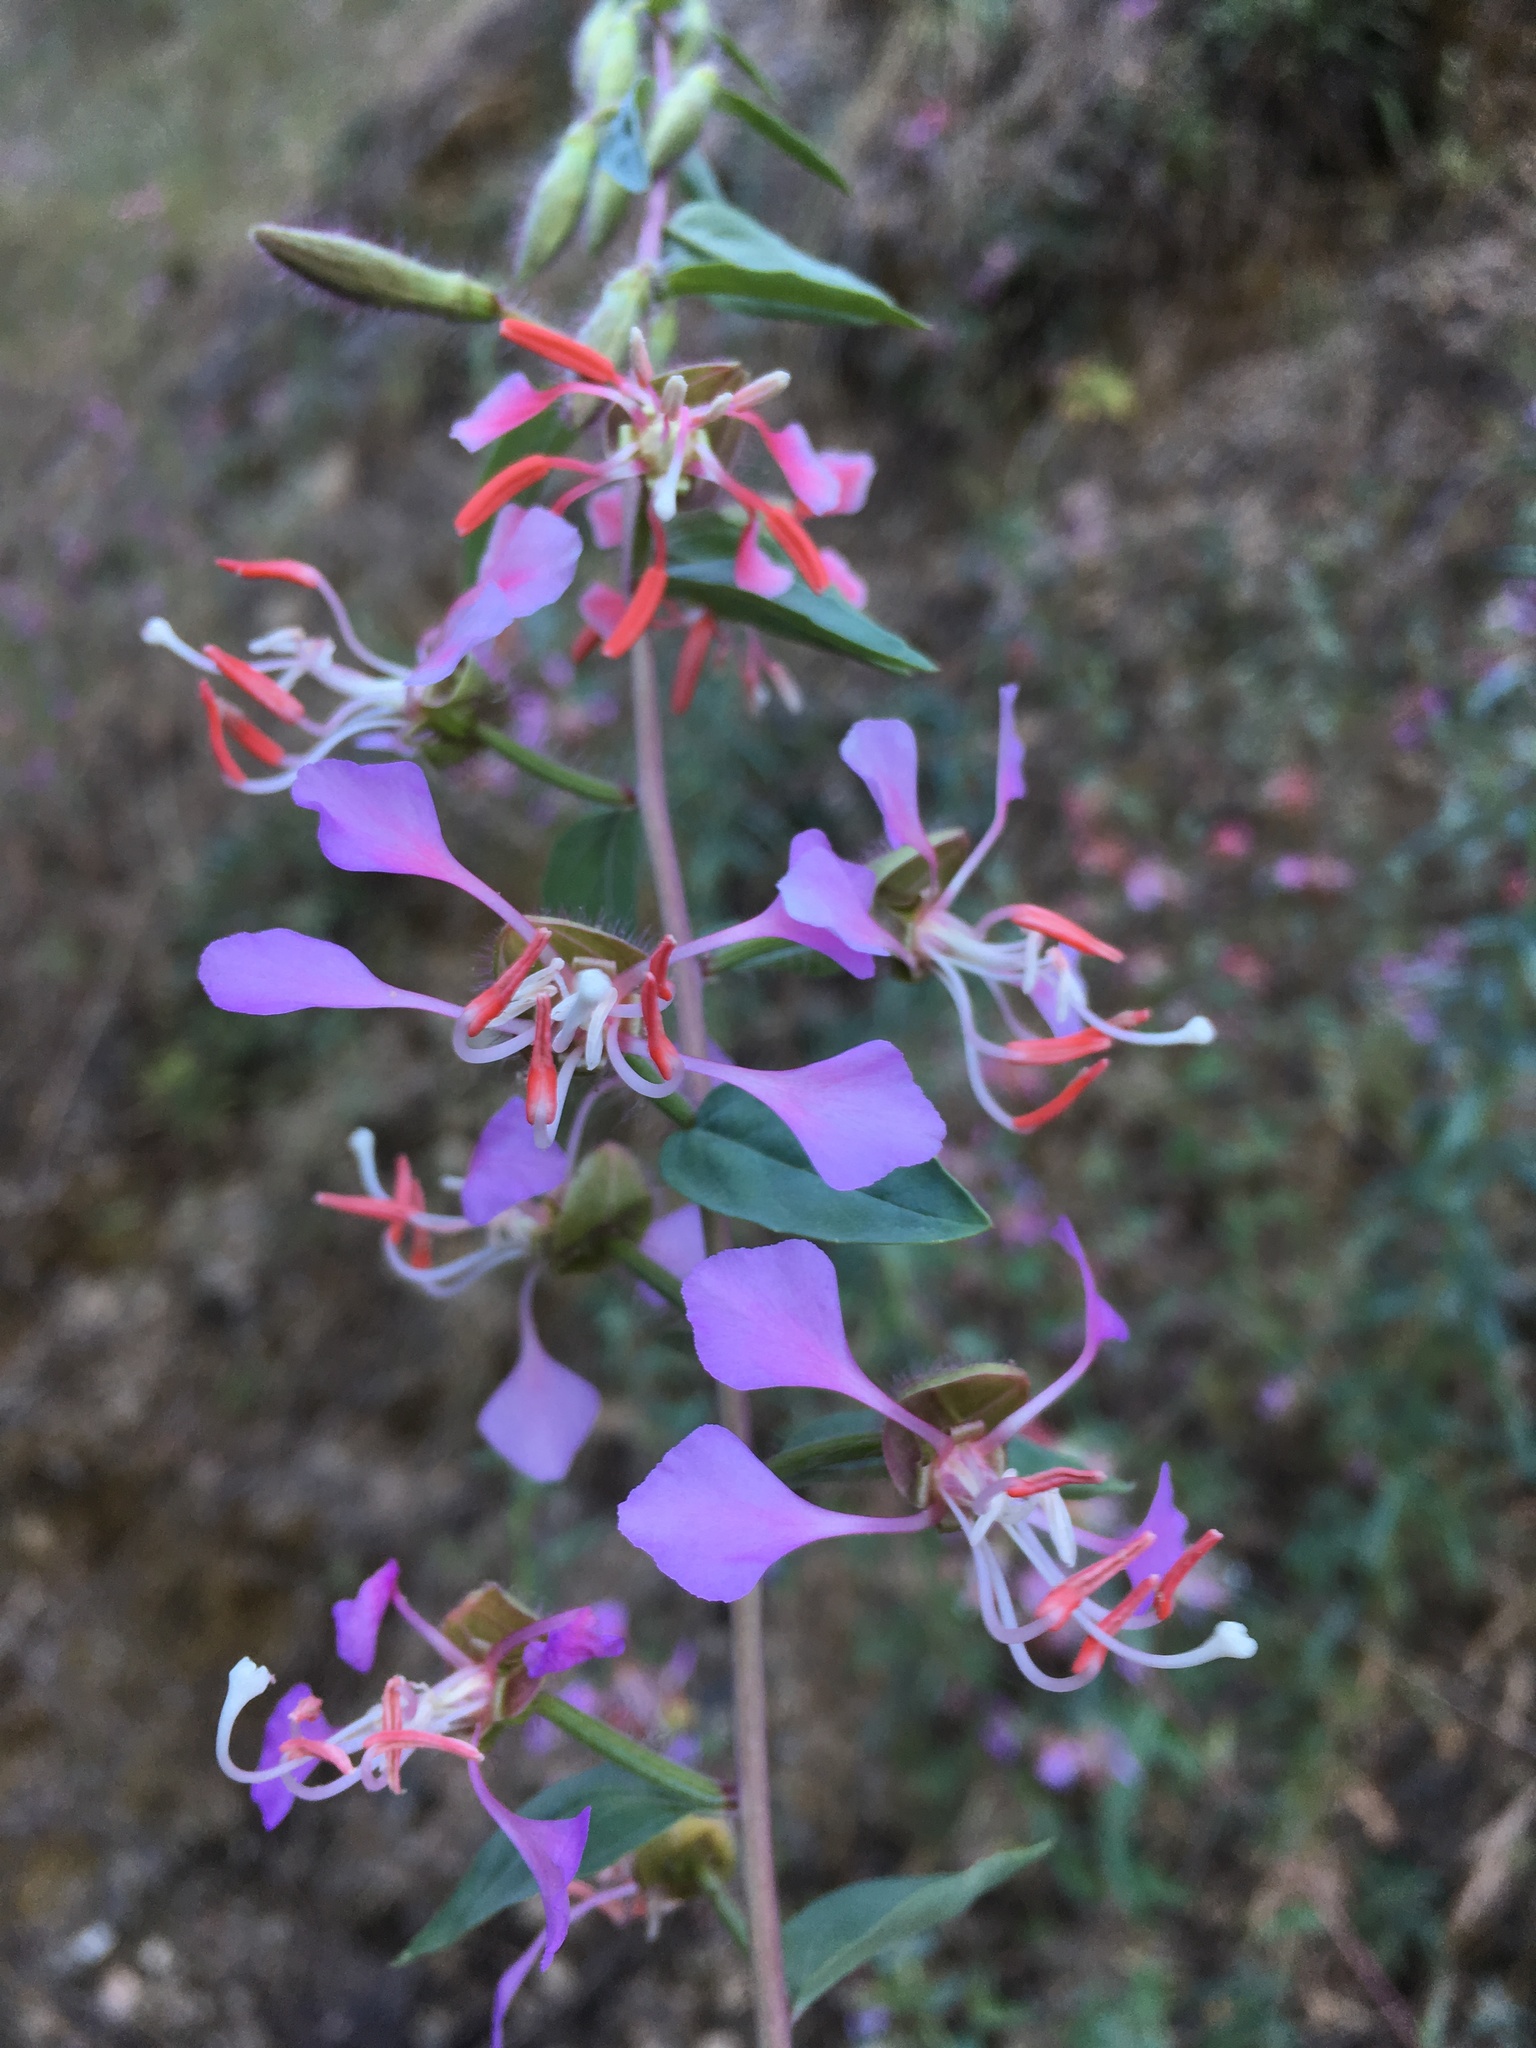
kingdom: Plantae
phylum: Tracheophyta
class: Magnoliopsida
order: Myrtales
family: Onagraceae
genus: Clarkia
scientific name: Clarkia unguiculata
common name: Clarkia
